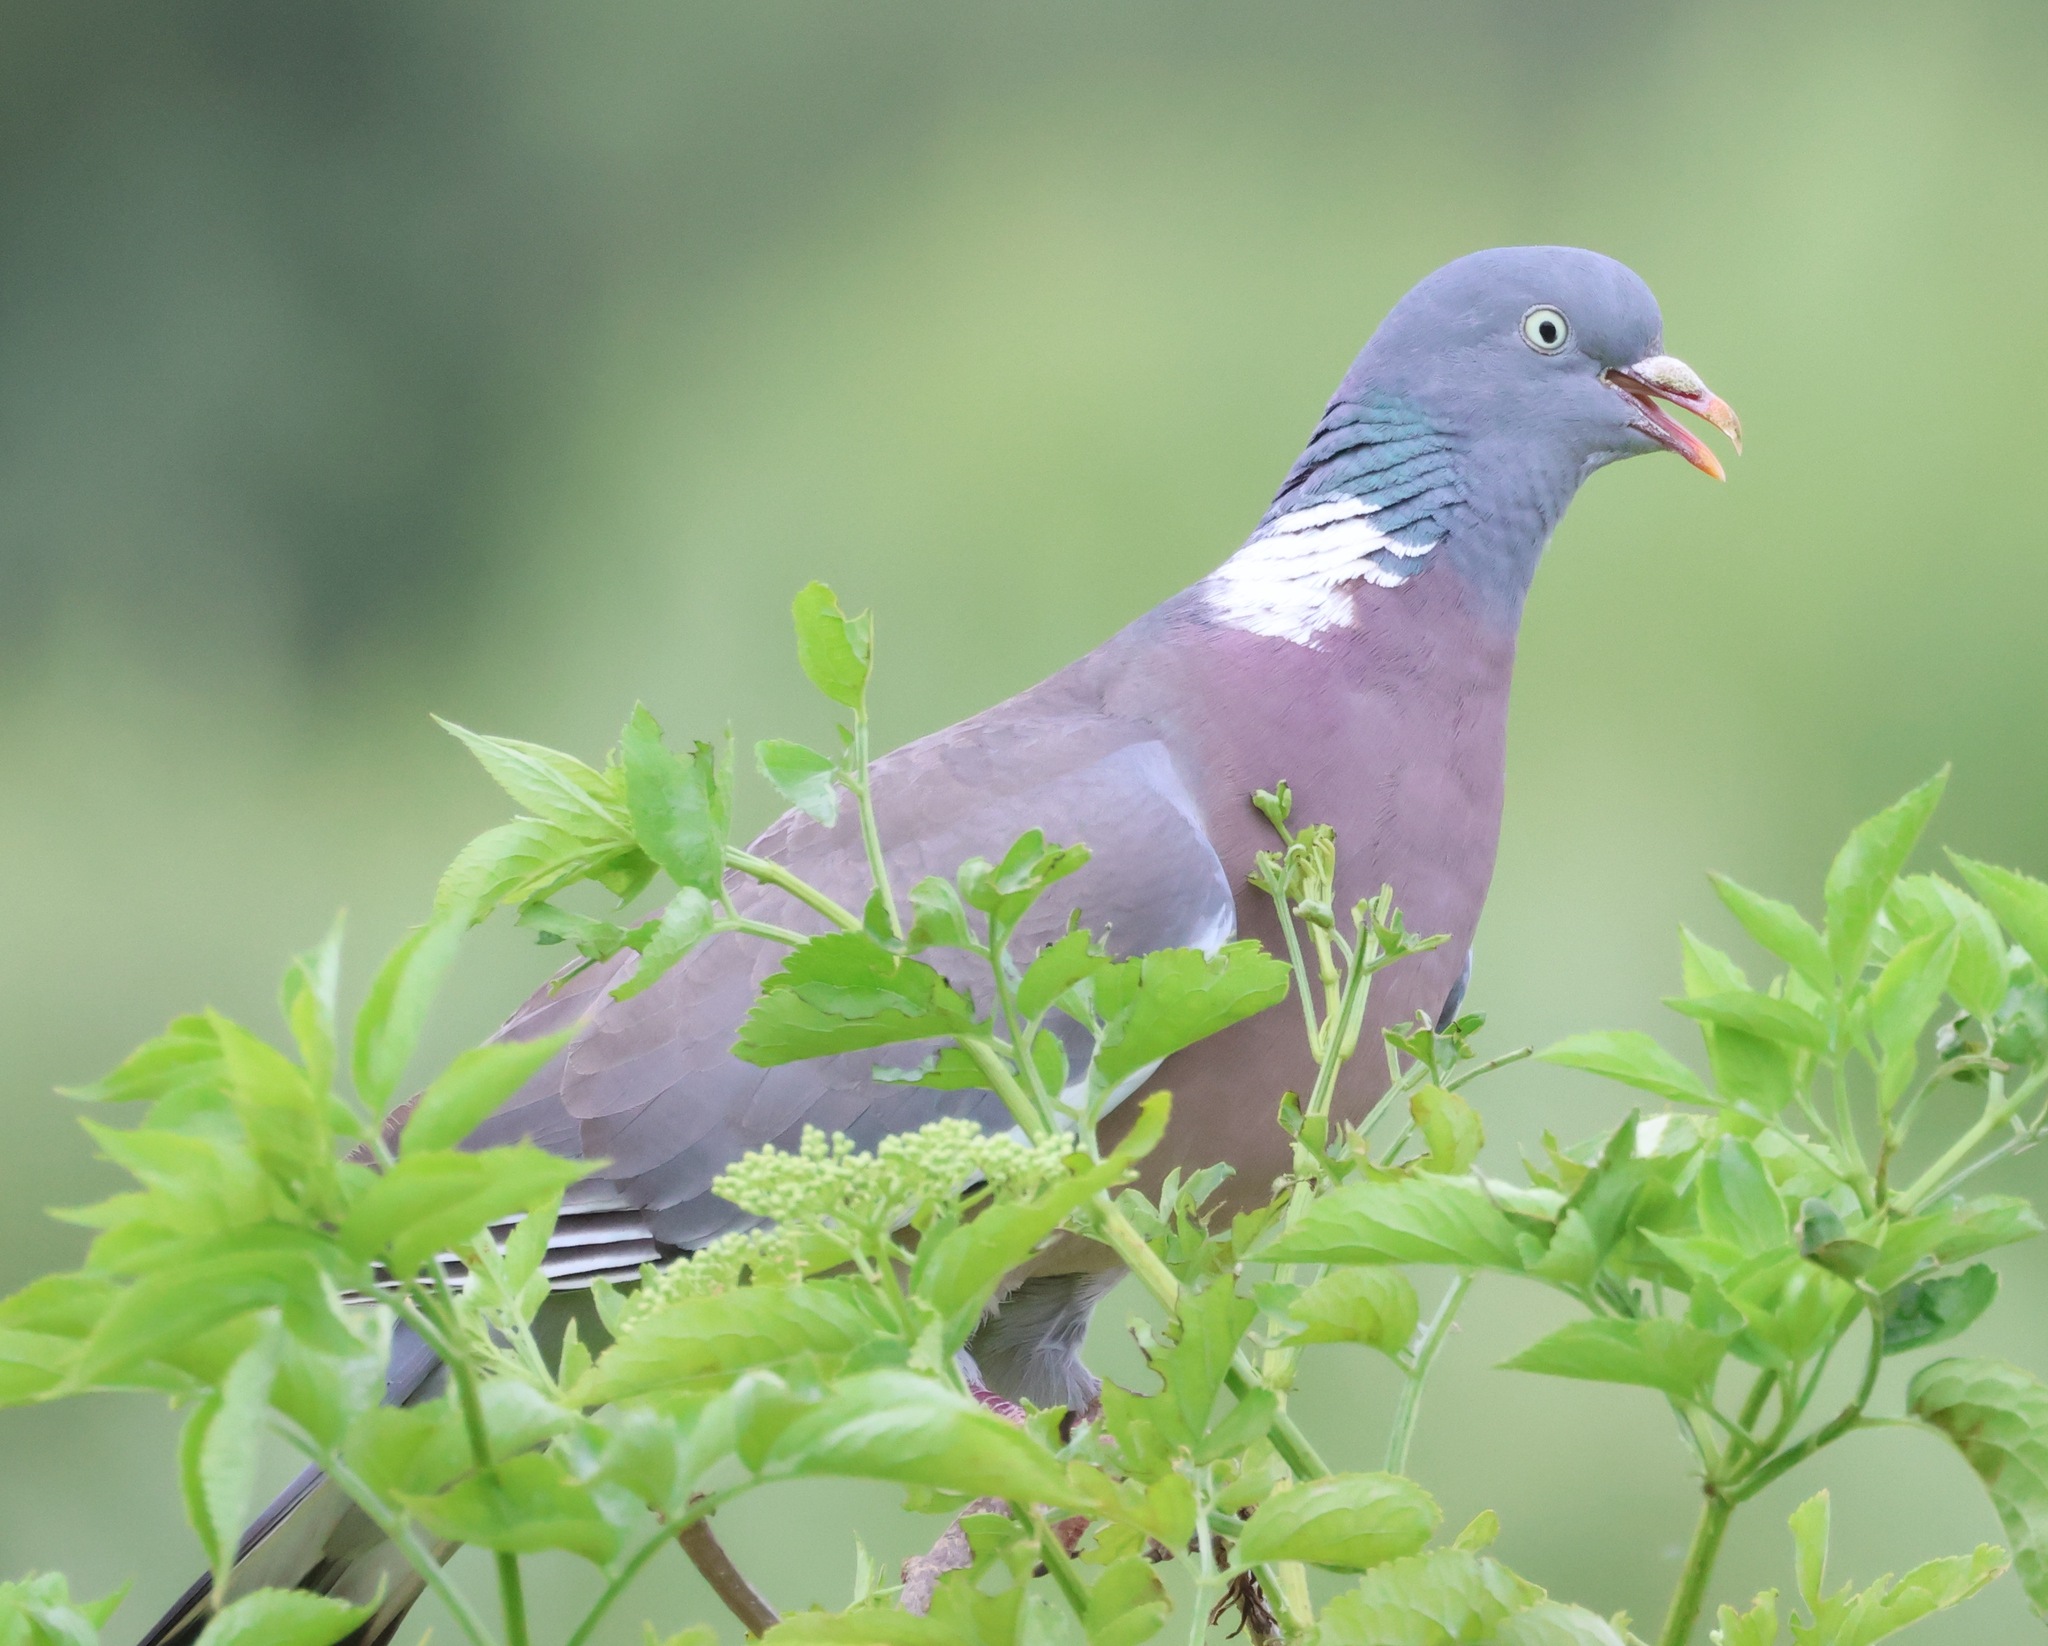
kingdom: Animalia
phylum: Chordata
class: Aves
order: Columbiformes
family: Columbidae
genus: Columba
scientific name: Columba palumbus
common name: Common wood pigeon
